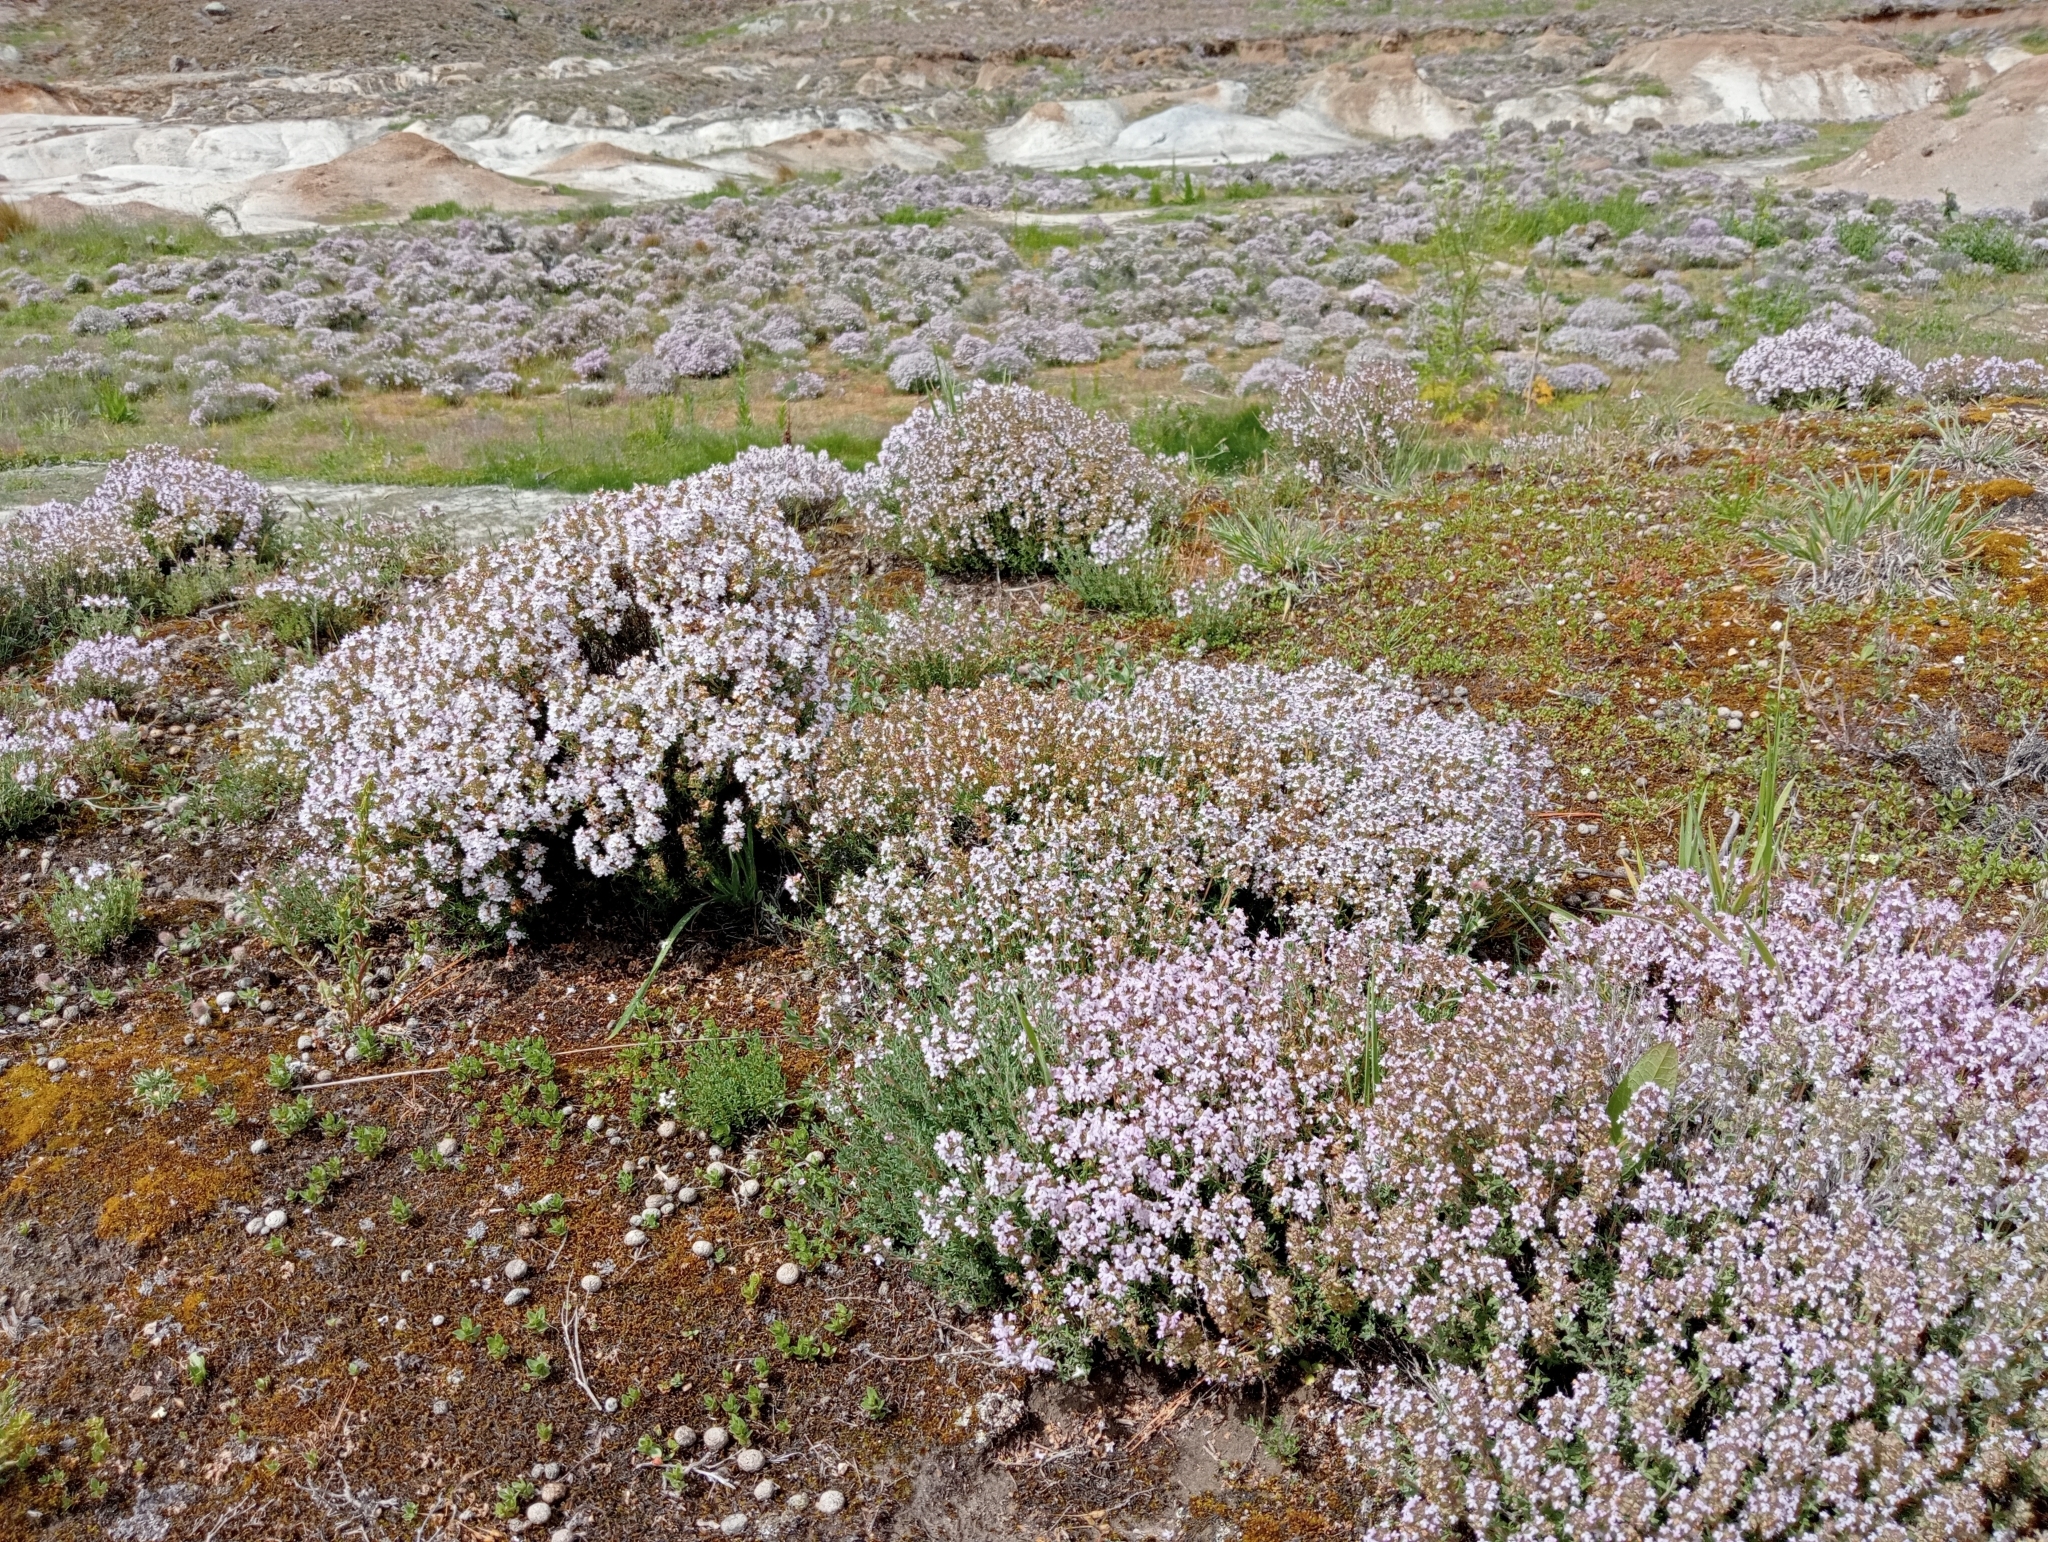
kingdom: Plantae
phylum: Tracheophyta
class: Magnoliopsida
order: Lamiales
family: Lamiaceae
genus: Thymus
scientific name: Thymus vulgaris
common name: Garden thyme
